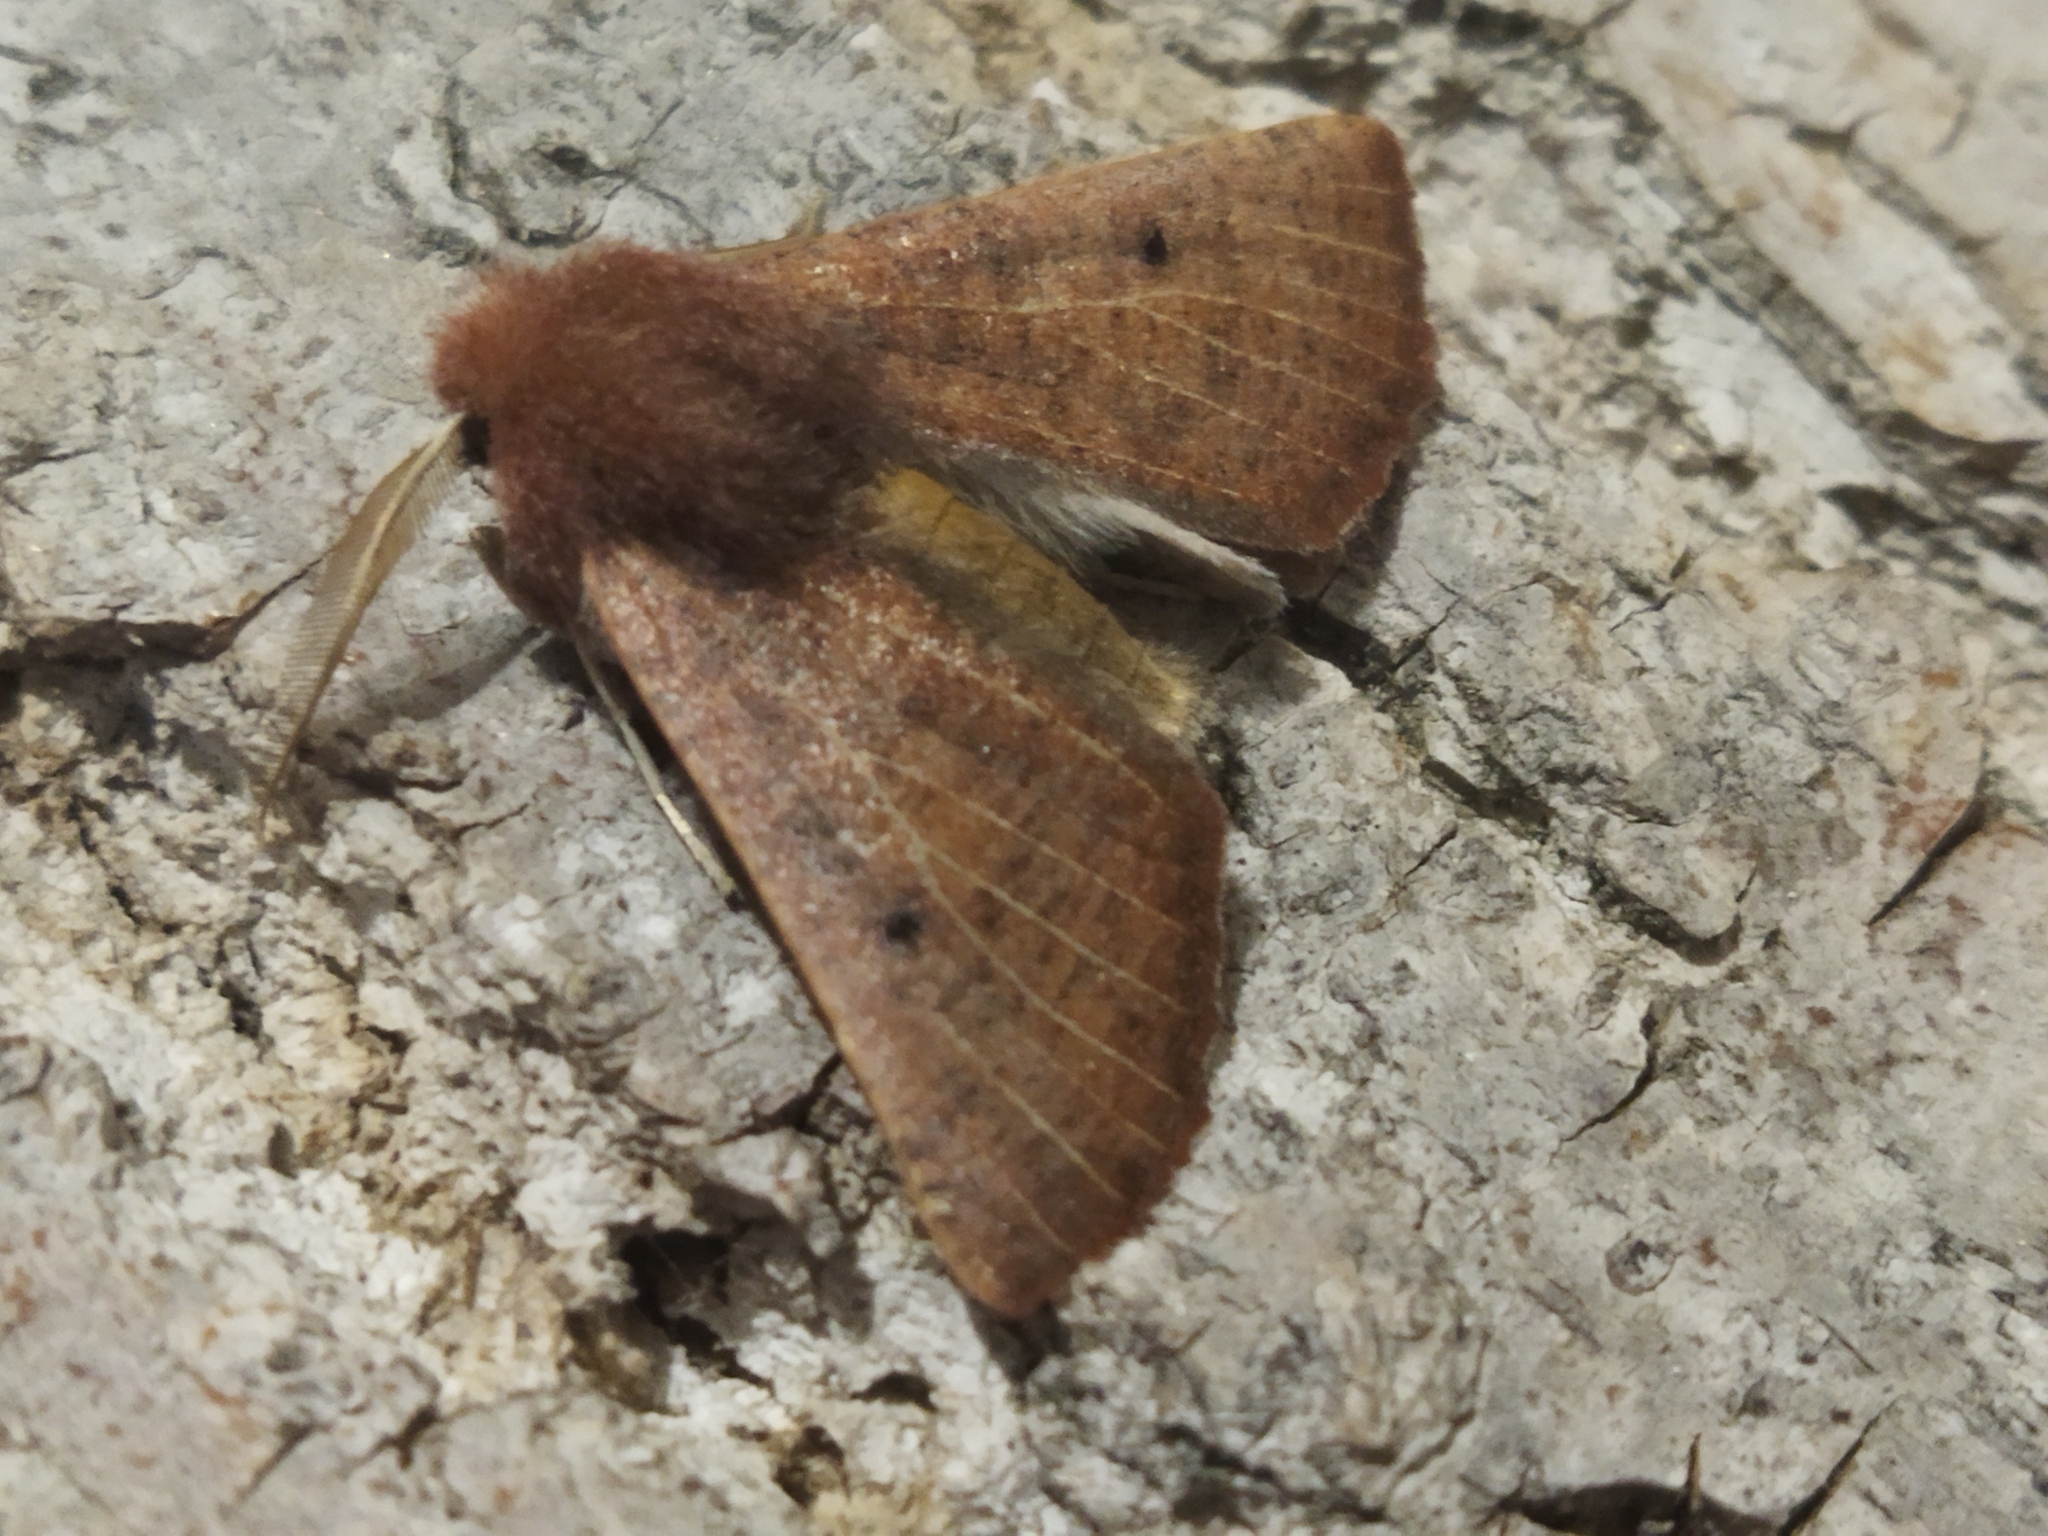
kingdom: Animalia
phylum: Arthropoda
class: Insecta
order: Lepidoptera
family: Geometridae
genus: Dasycorsa
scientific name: Dasycorsa modesta
